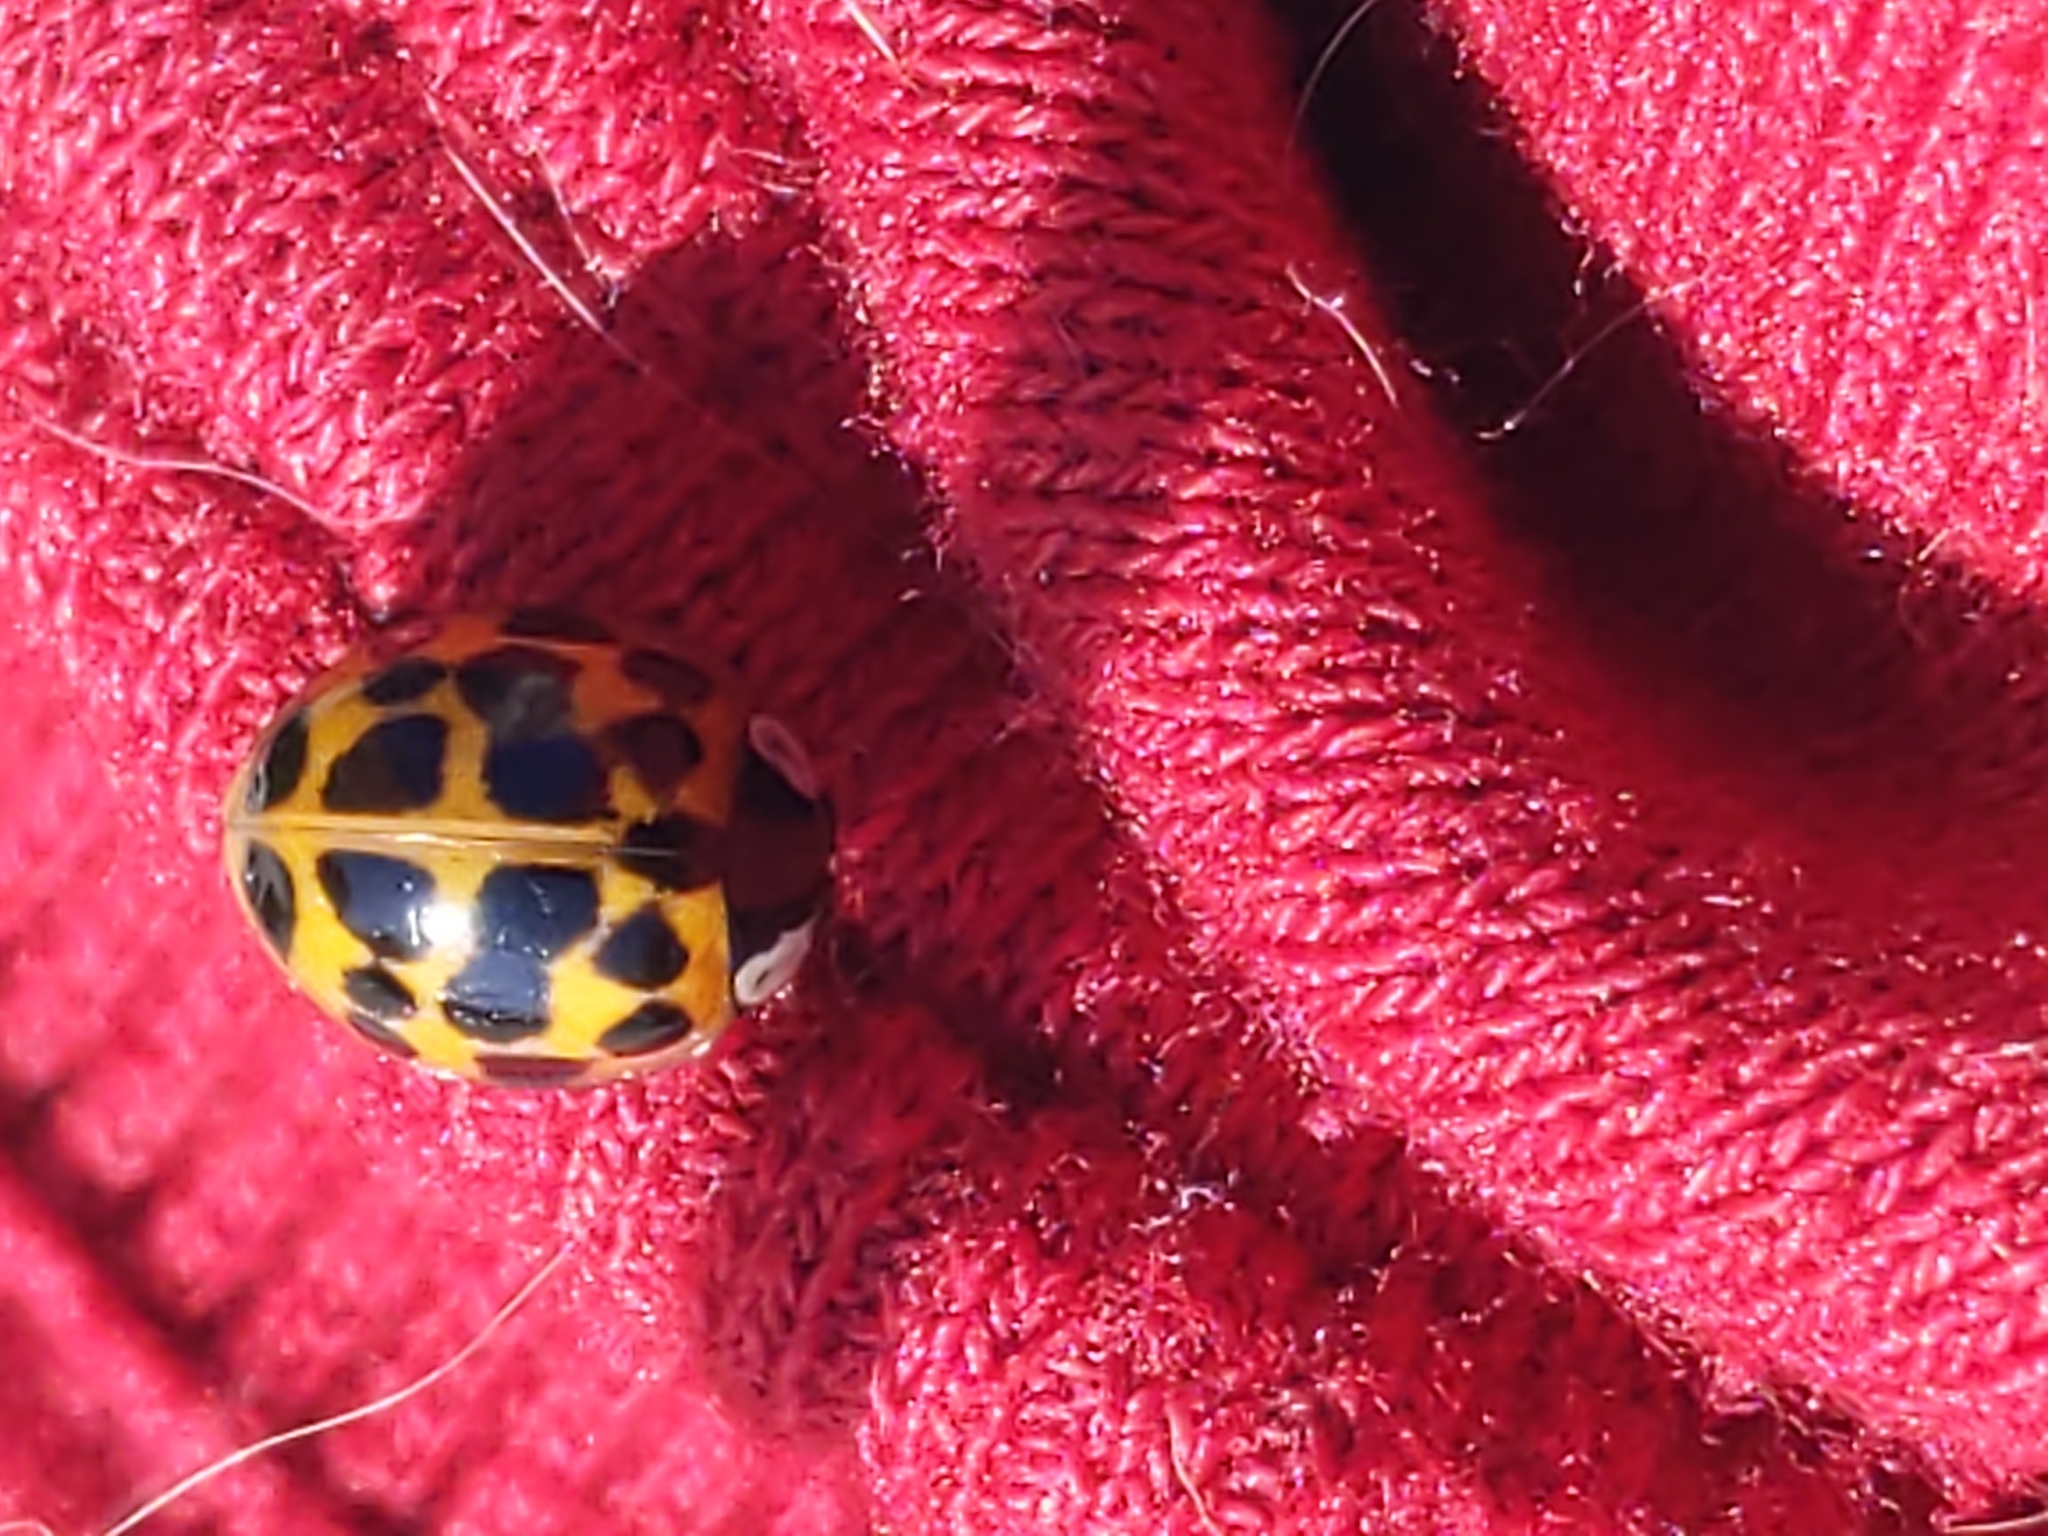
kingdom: Animalia
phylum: Arthropoda
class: Insecta
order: Coleoptera
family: Coccinellidae
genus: Harmonia
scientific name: Harmonia axyridis
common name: Harlequin ladybird
